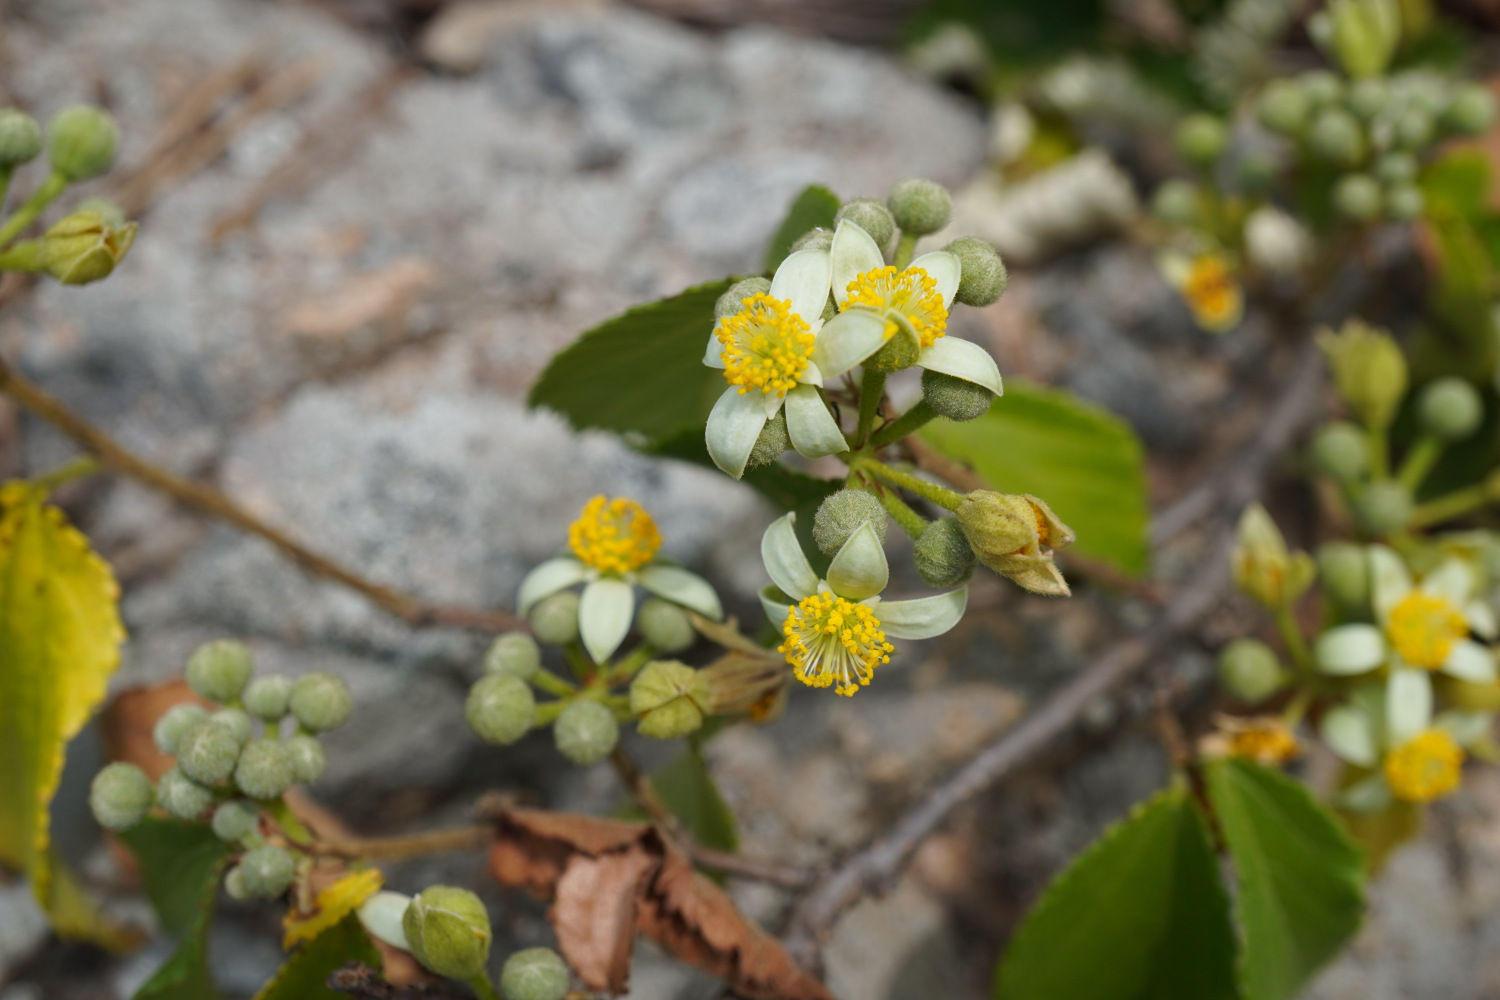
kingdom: Plantae
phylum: Tracheophyta
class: Magnoliopsida
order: Malvales
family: Malvaceae
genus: Grewia
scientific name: Grewia biloba
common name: Bilobed grewia
